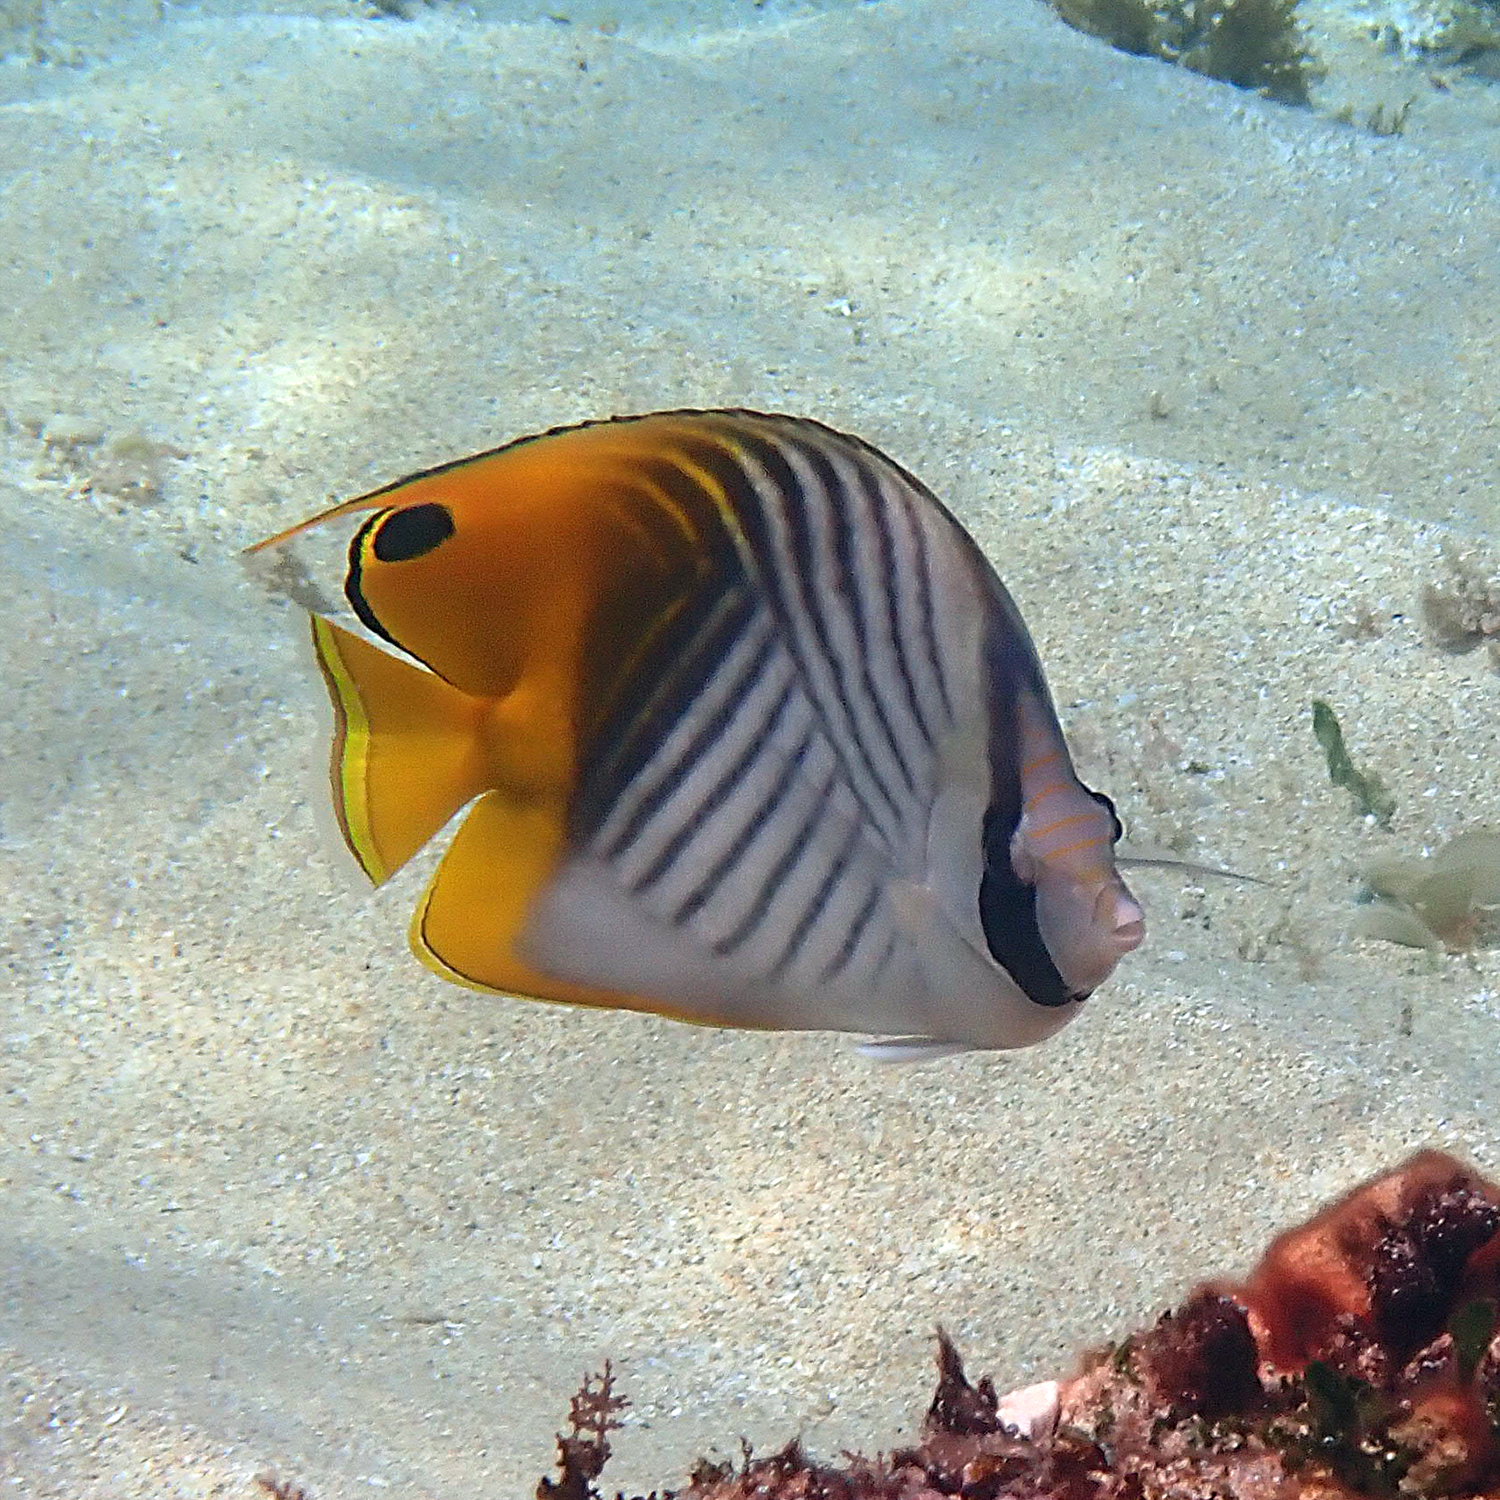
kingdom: Animalia
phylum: Chordata
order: Perciformes
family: Chaetodontidae
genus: Chaetodon
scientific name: Chaetodon auriga
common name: Threadfin butterflyfish
